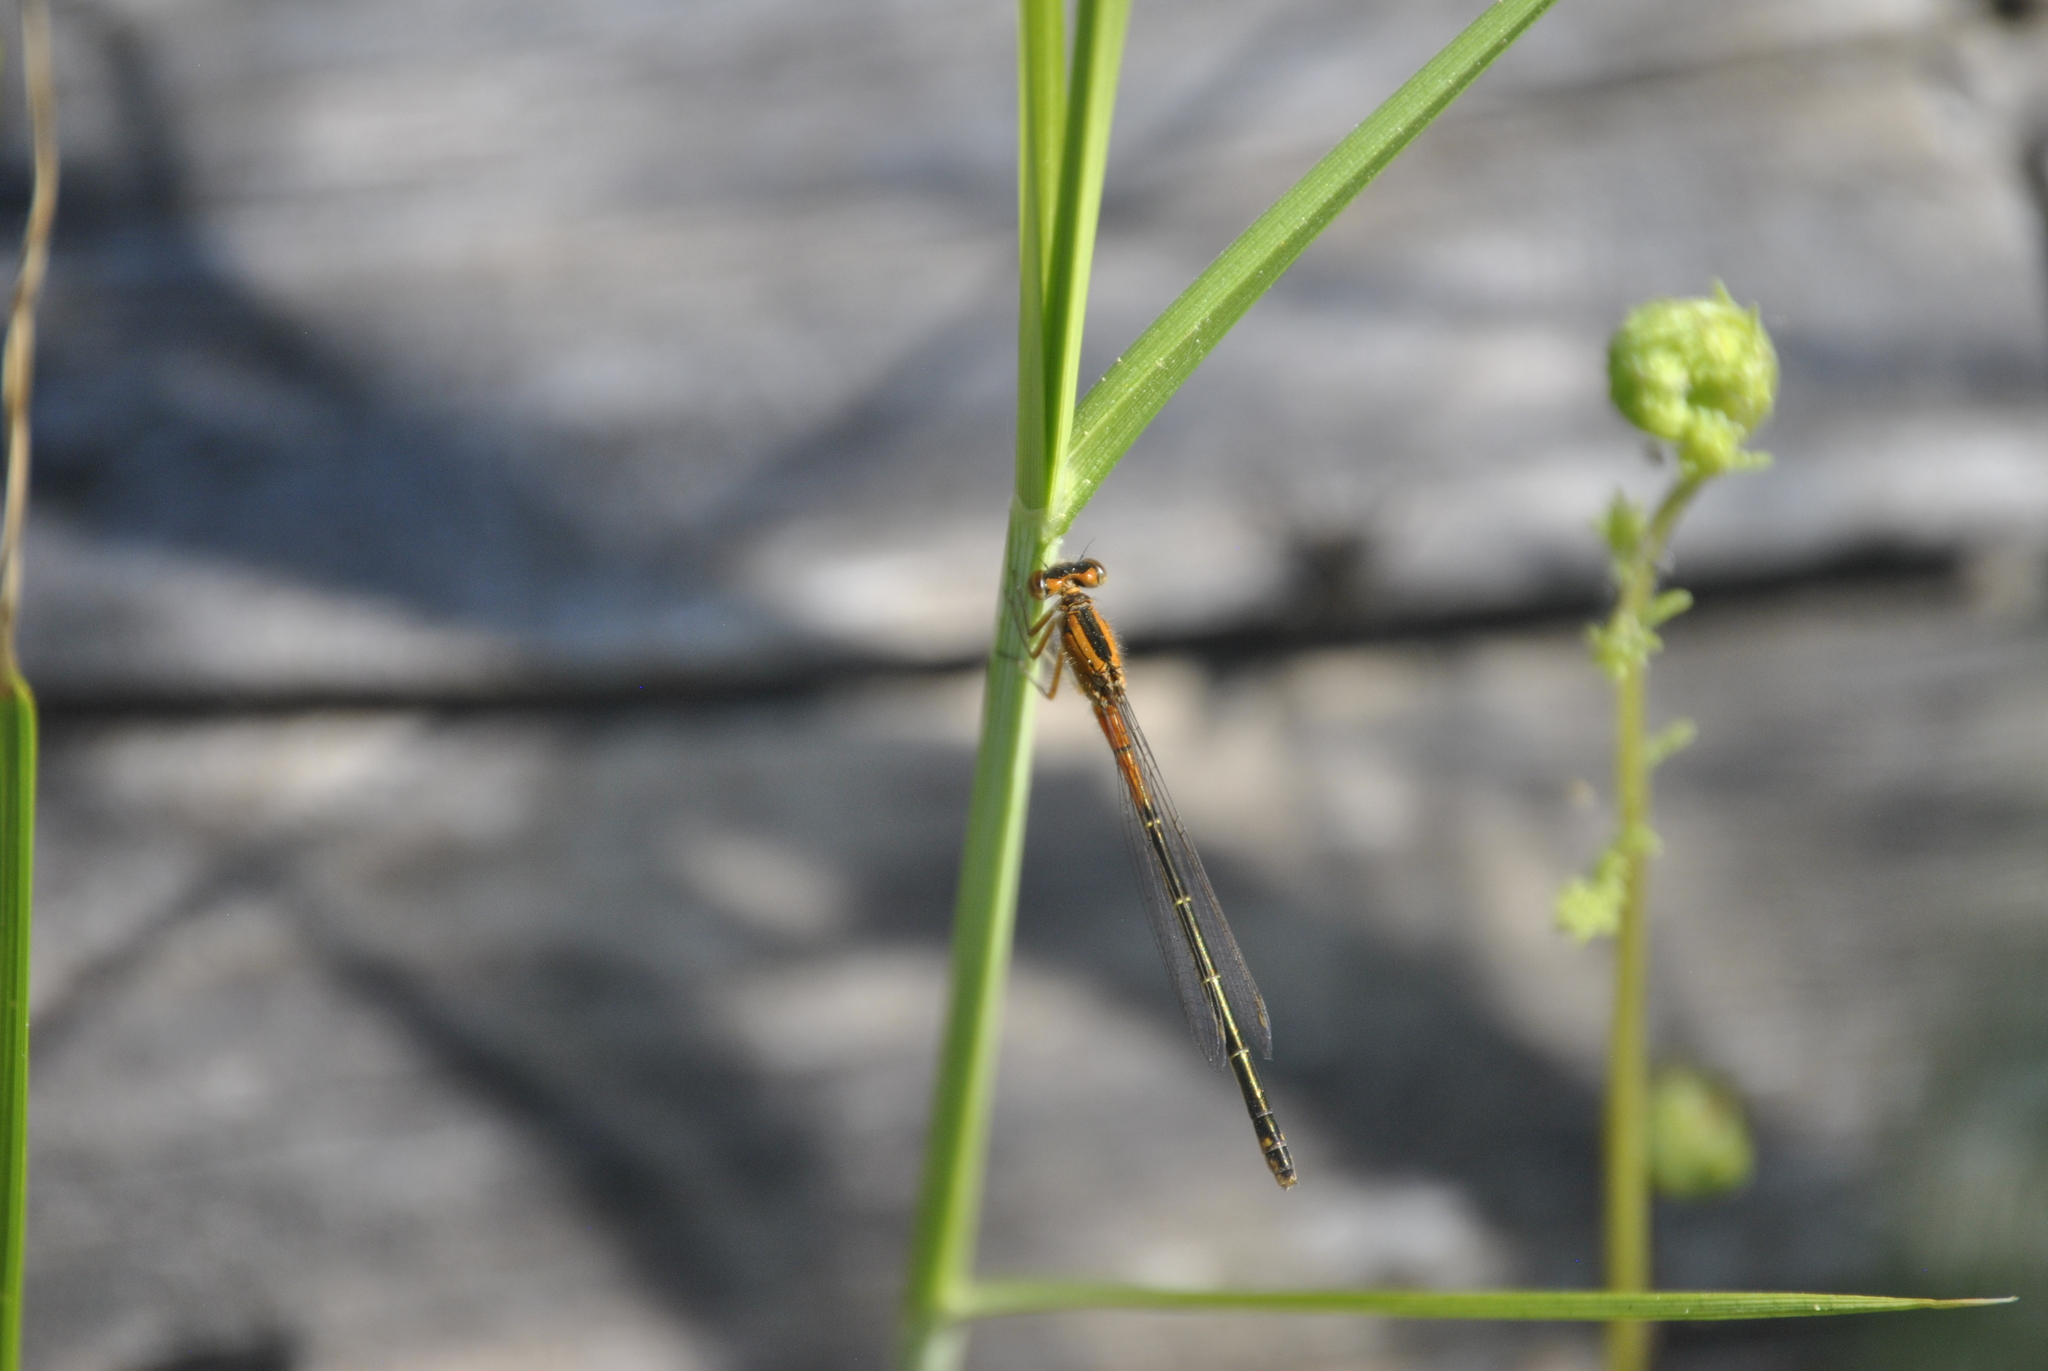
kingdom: Animalia
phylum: Arthropoda
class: Insecta
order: Odonata
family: Coenagrionidae
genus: Ischnura
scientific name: Ischnura verticalis
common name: Eastern forktail
